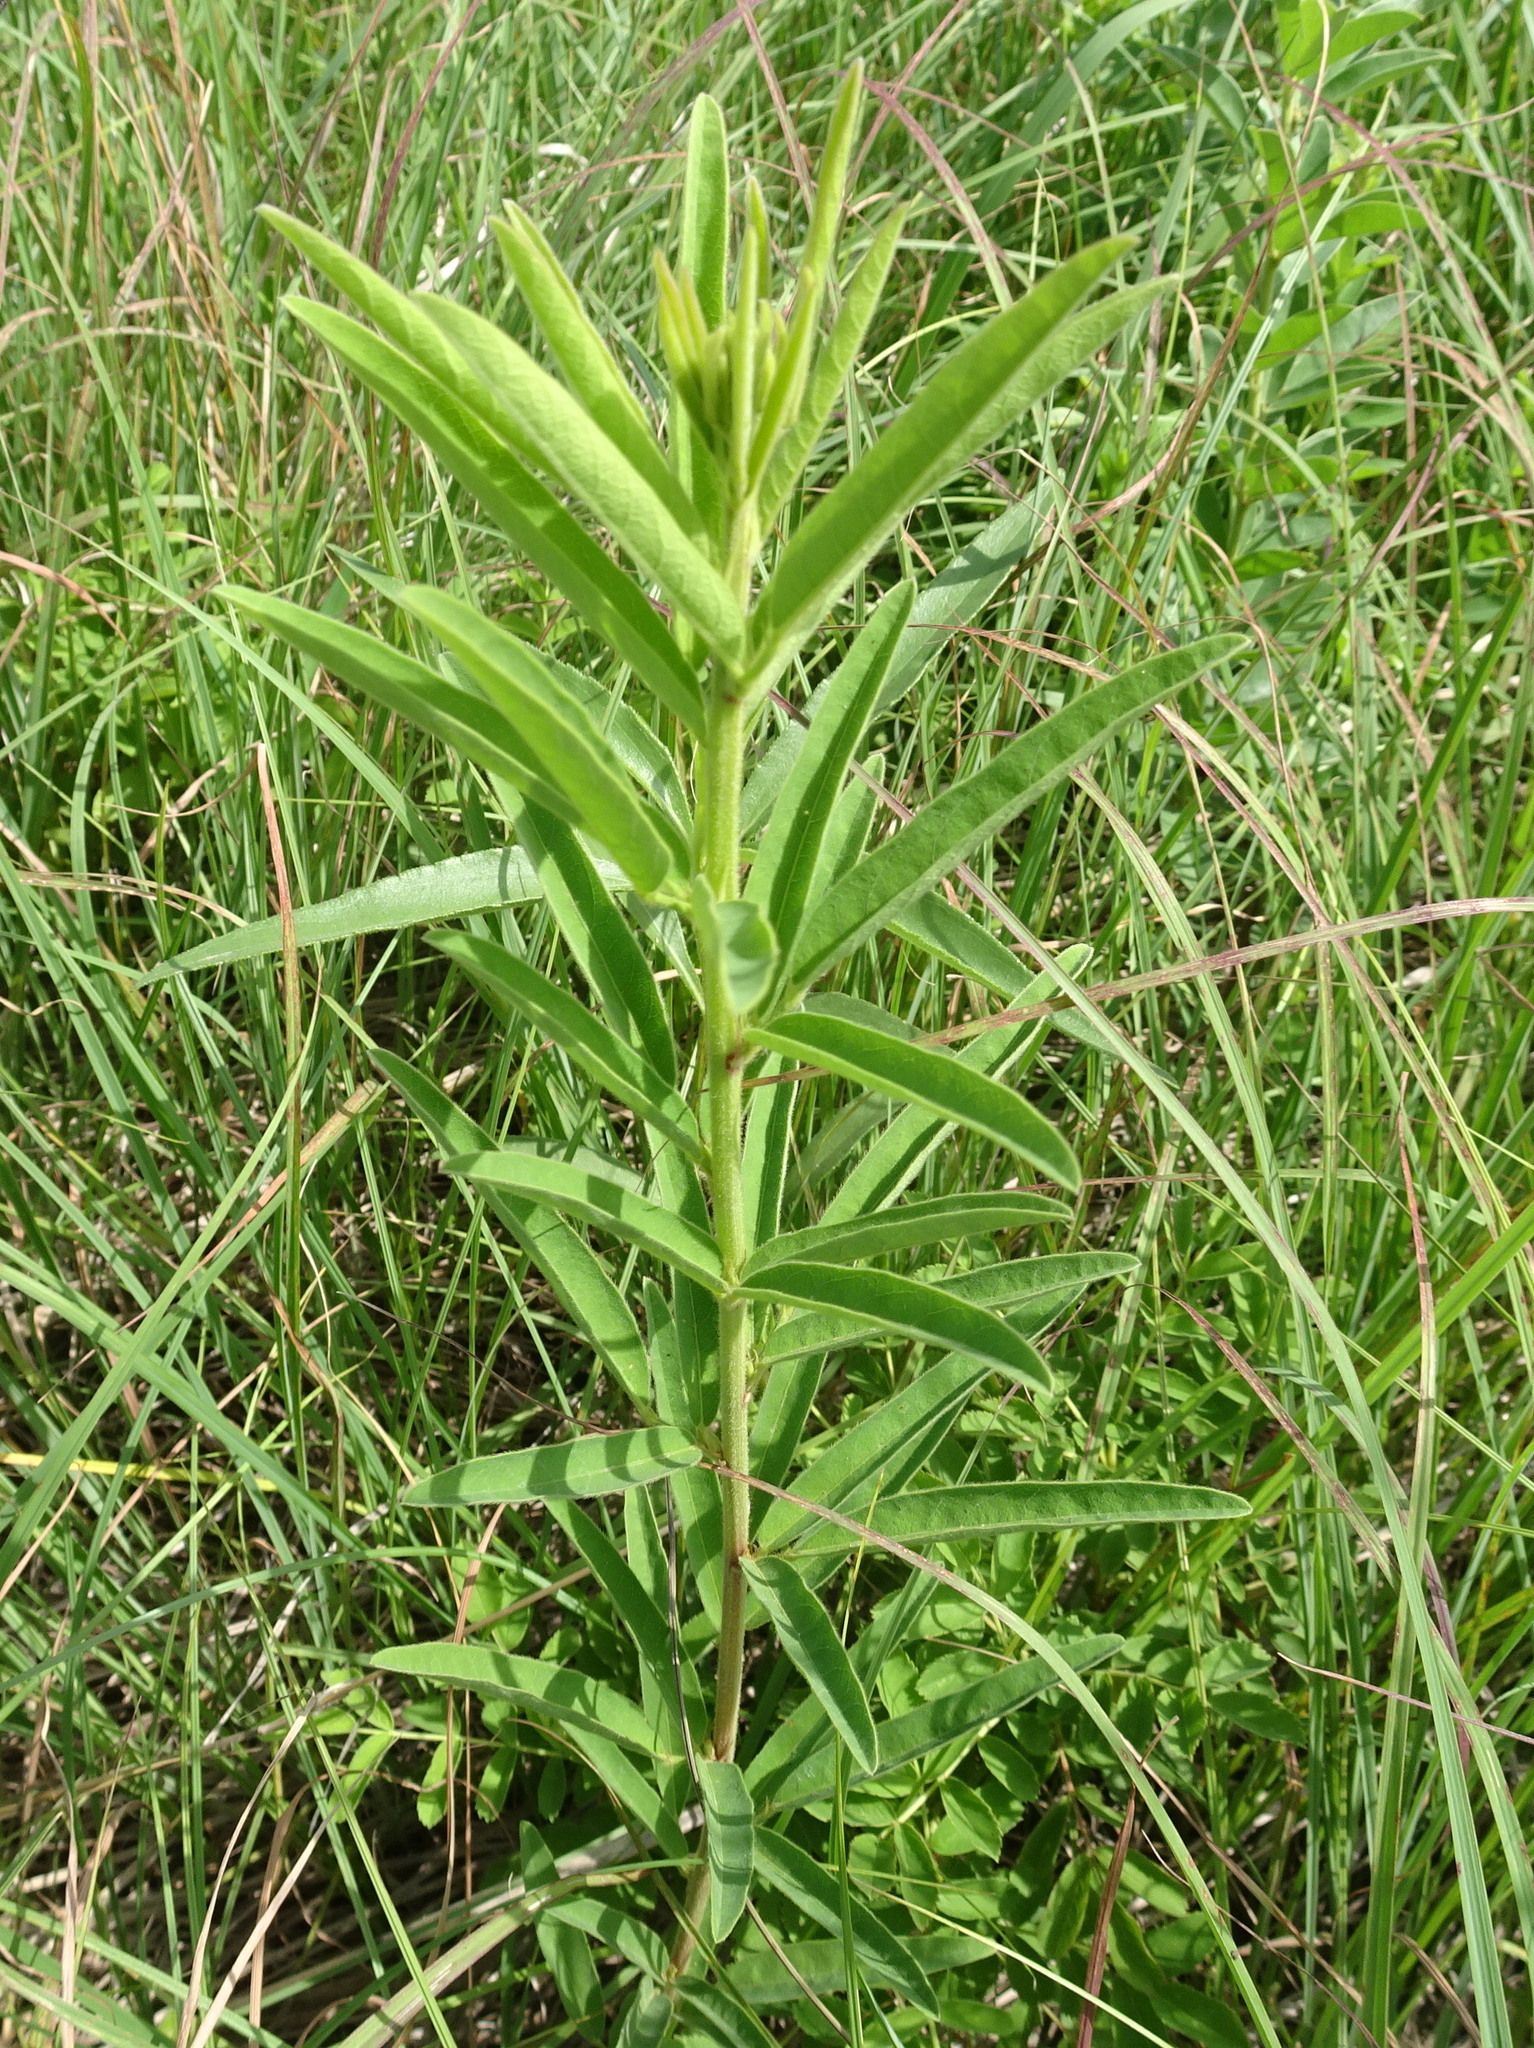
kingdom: Plantae
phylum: Tracheophyta
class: Magnoliopsida
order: Fabales
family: Fabaceae
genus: Desmodium
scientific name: Desmodium sessilifolium
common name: Sessile tick-clover
